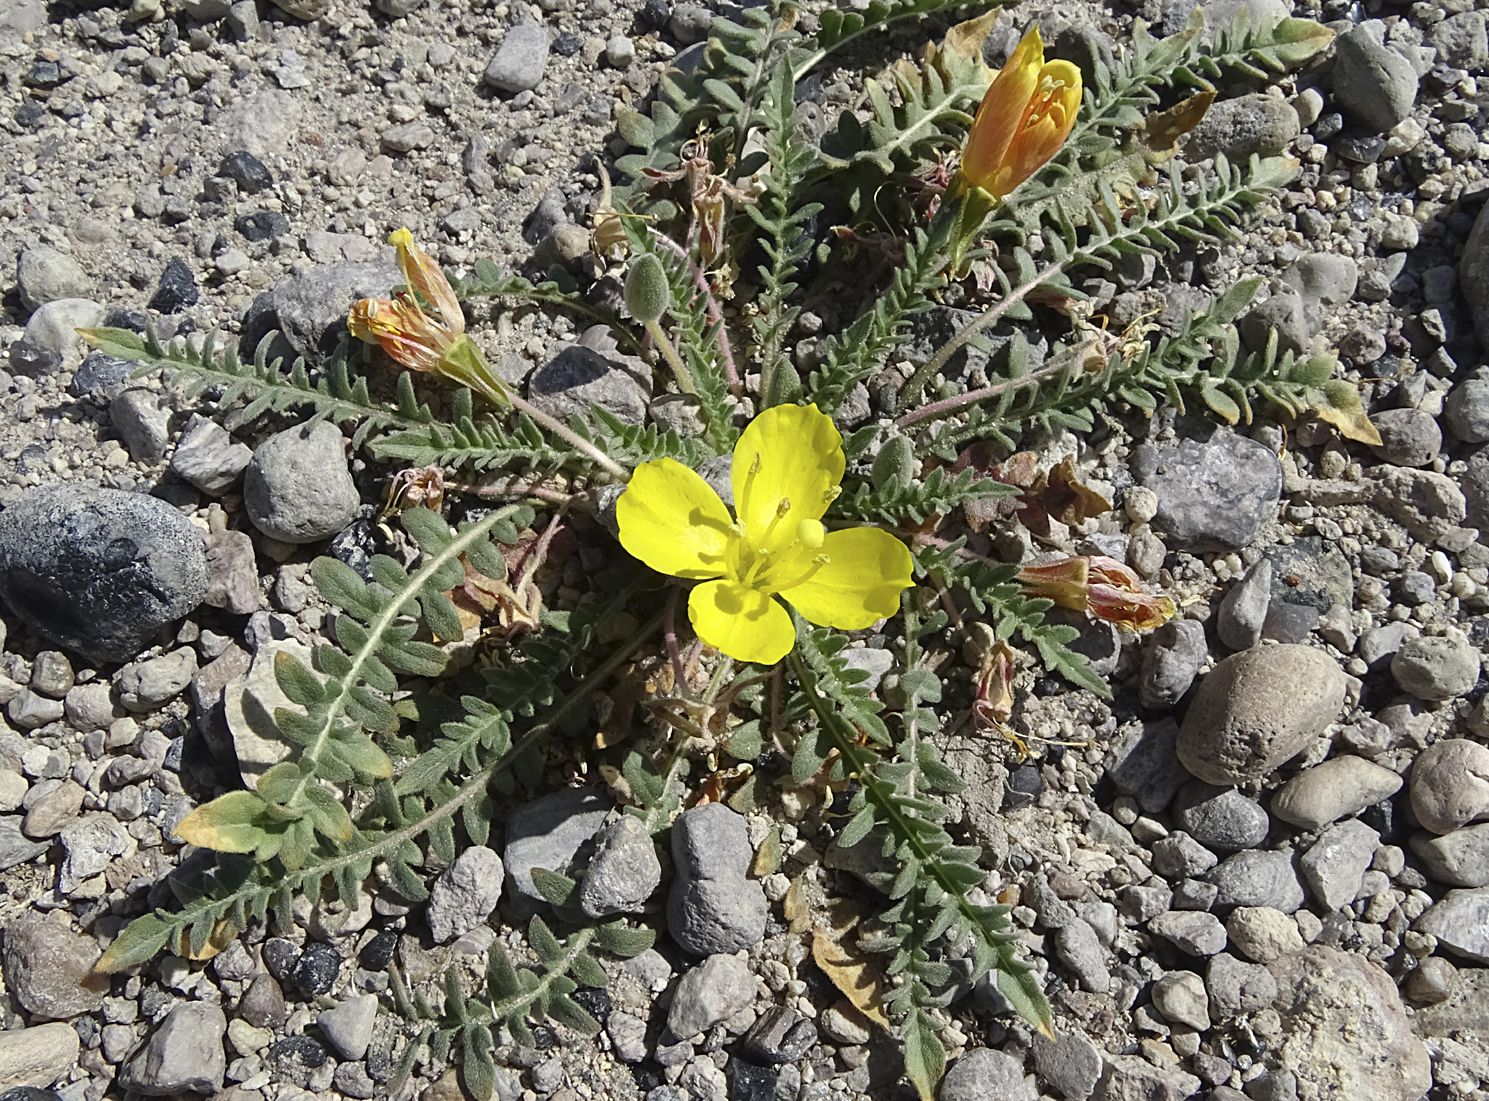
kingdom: Plantae
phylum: Tracheophyta
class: Magnoliopsida
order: Myrtales
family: Onagraceae
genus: Taraxia
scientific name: Taraxia tanacetifolia
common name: Tansyleaf evening primrose
